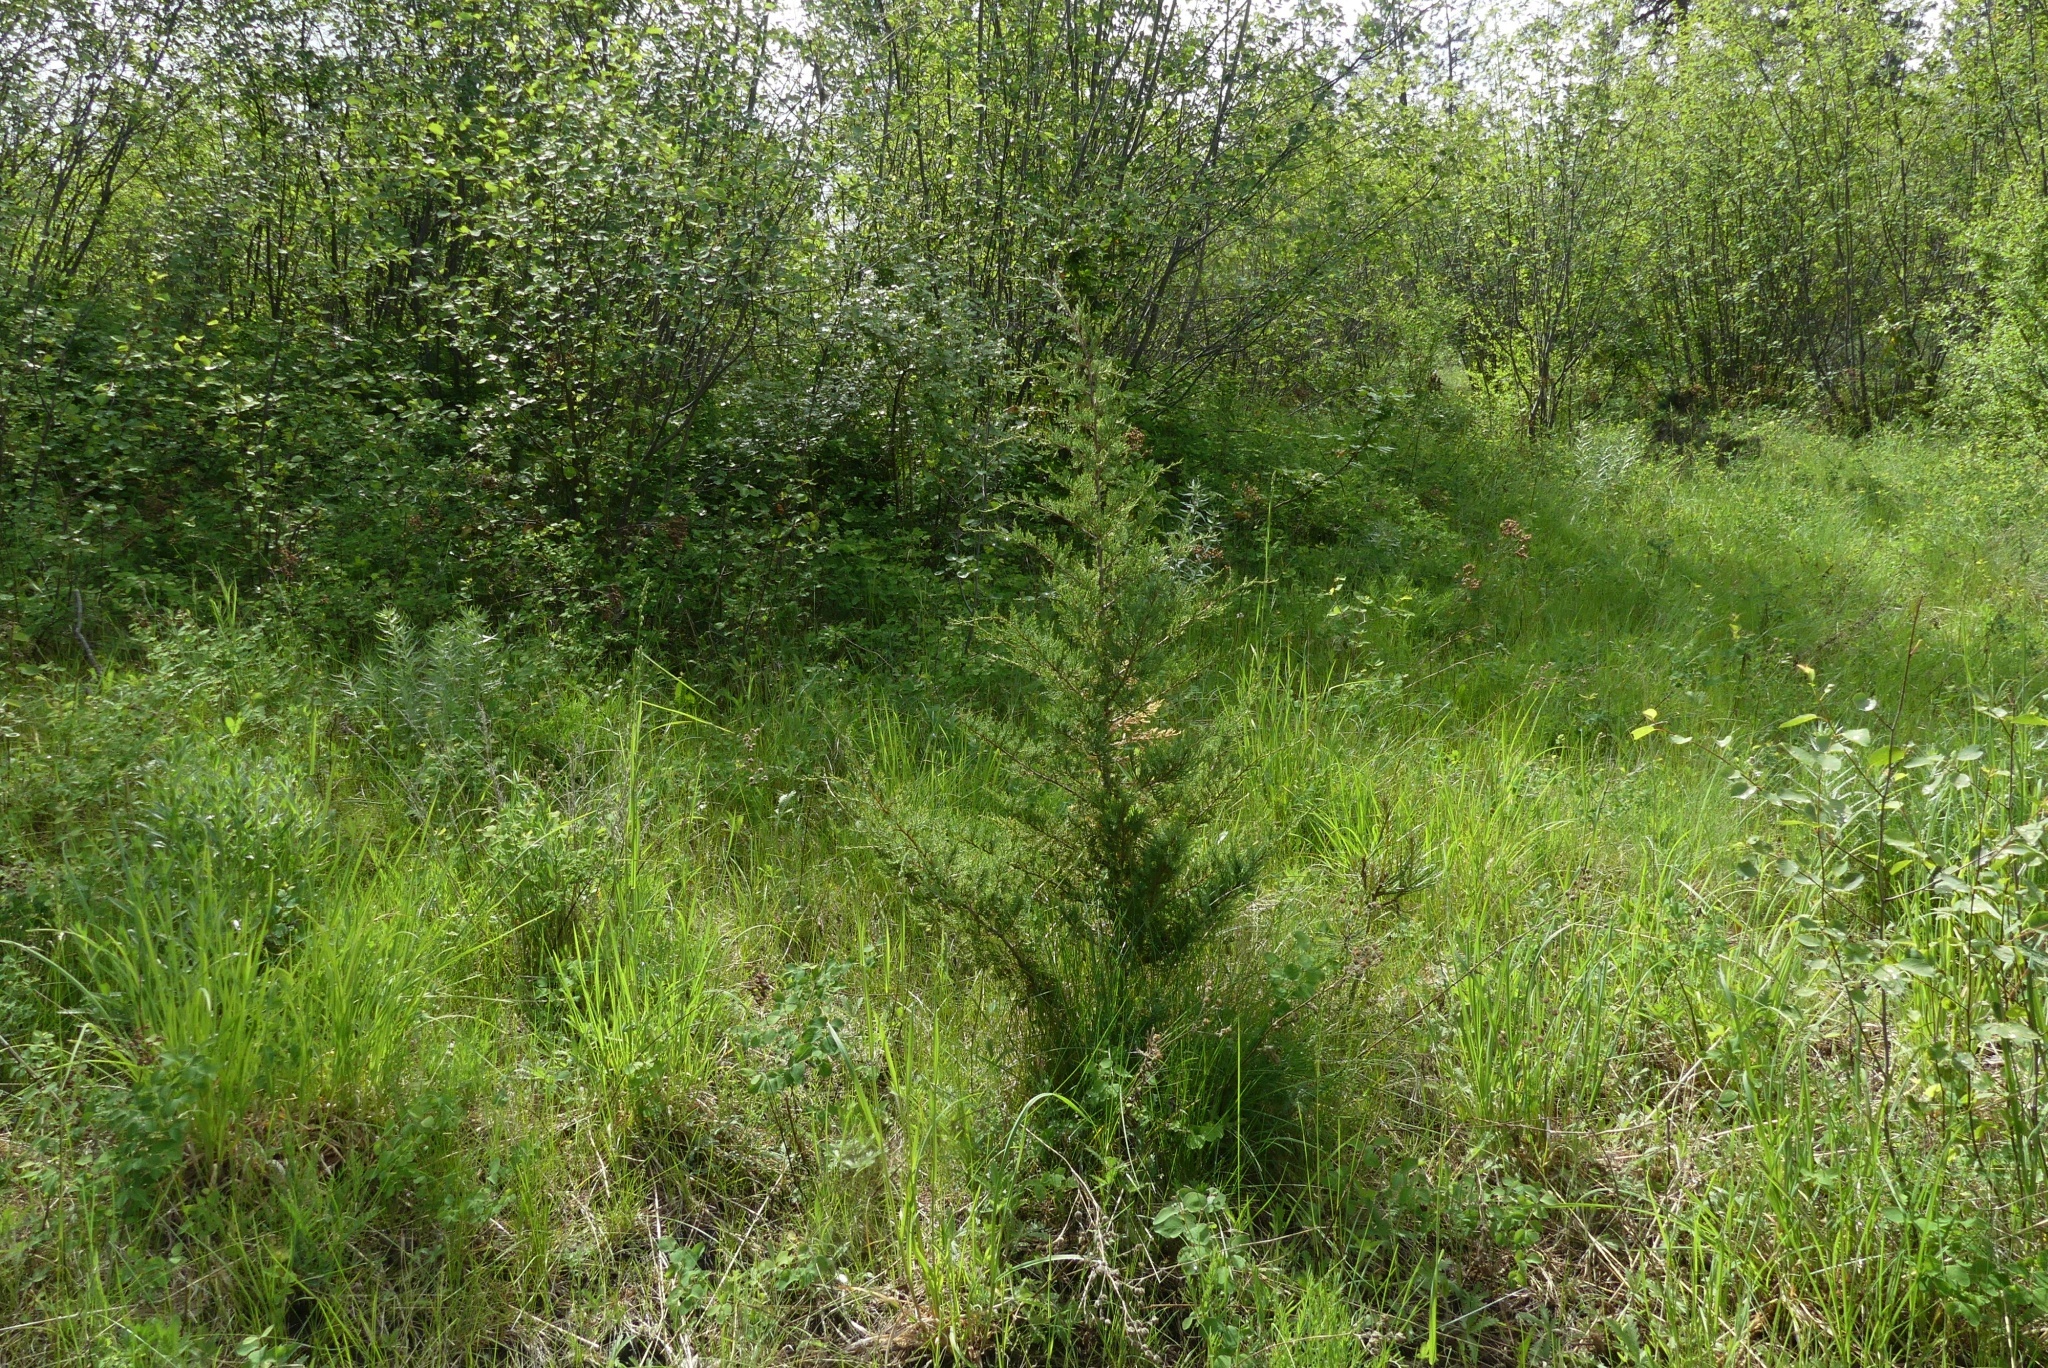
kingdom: Plantae
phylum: Tracheophyta
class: Pinopsida
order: Pinales
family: Cupressaceae
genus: Juniperus
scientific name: Juniperus communis
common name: Common juniper
